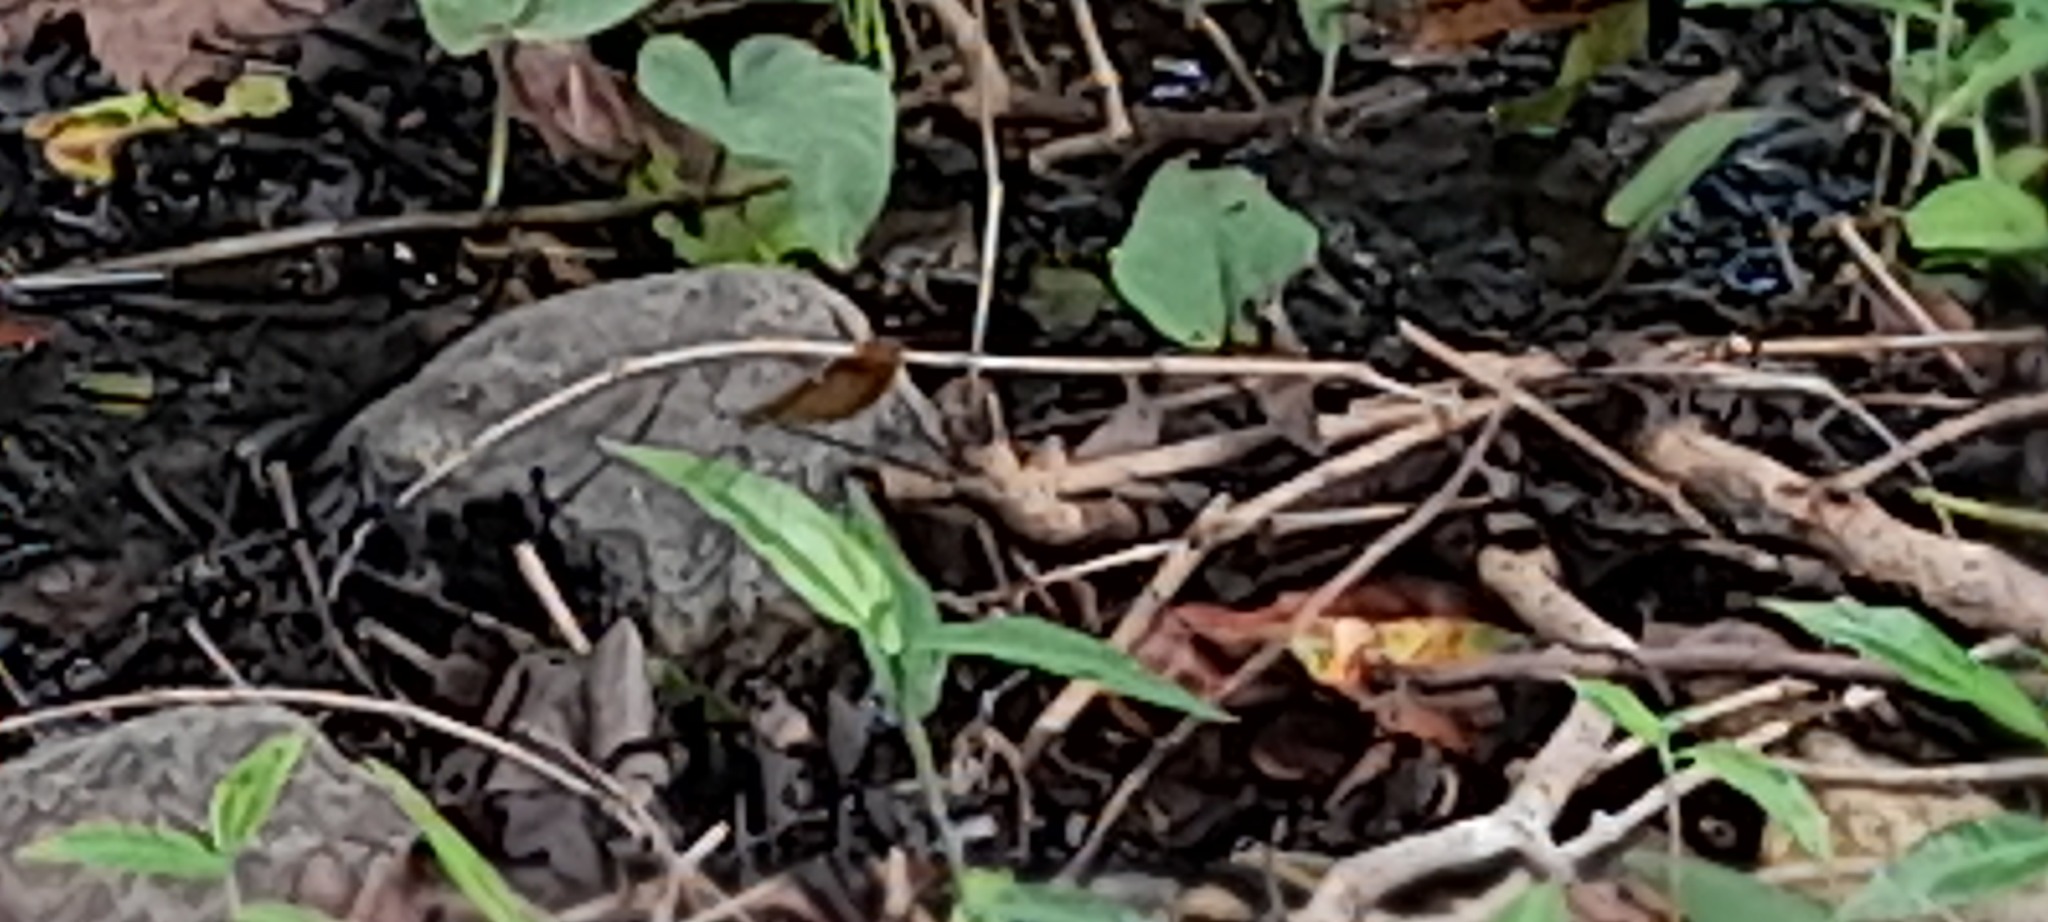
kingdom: Animalia
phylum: Arthropoda
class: Insecta
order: Odonata
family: Calopterygidae
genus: Neurobasis
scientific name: Neurobasis chinensis
